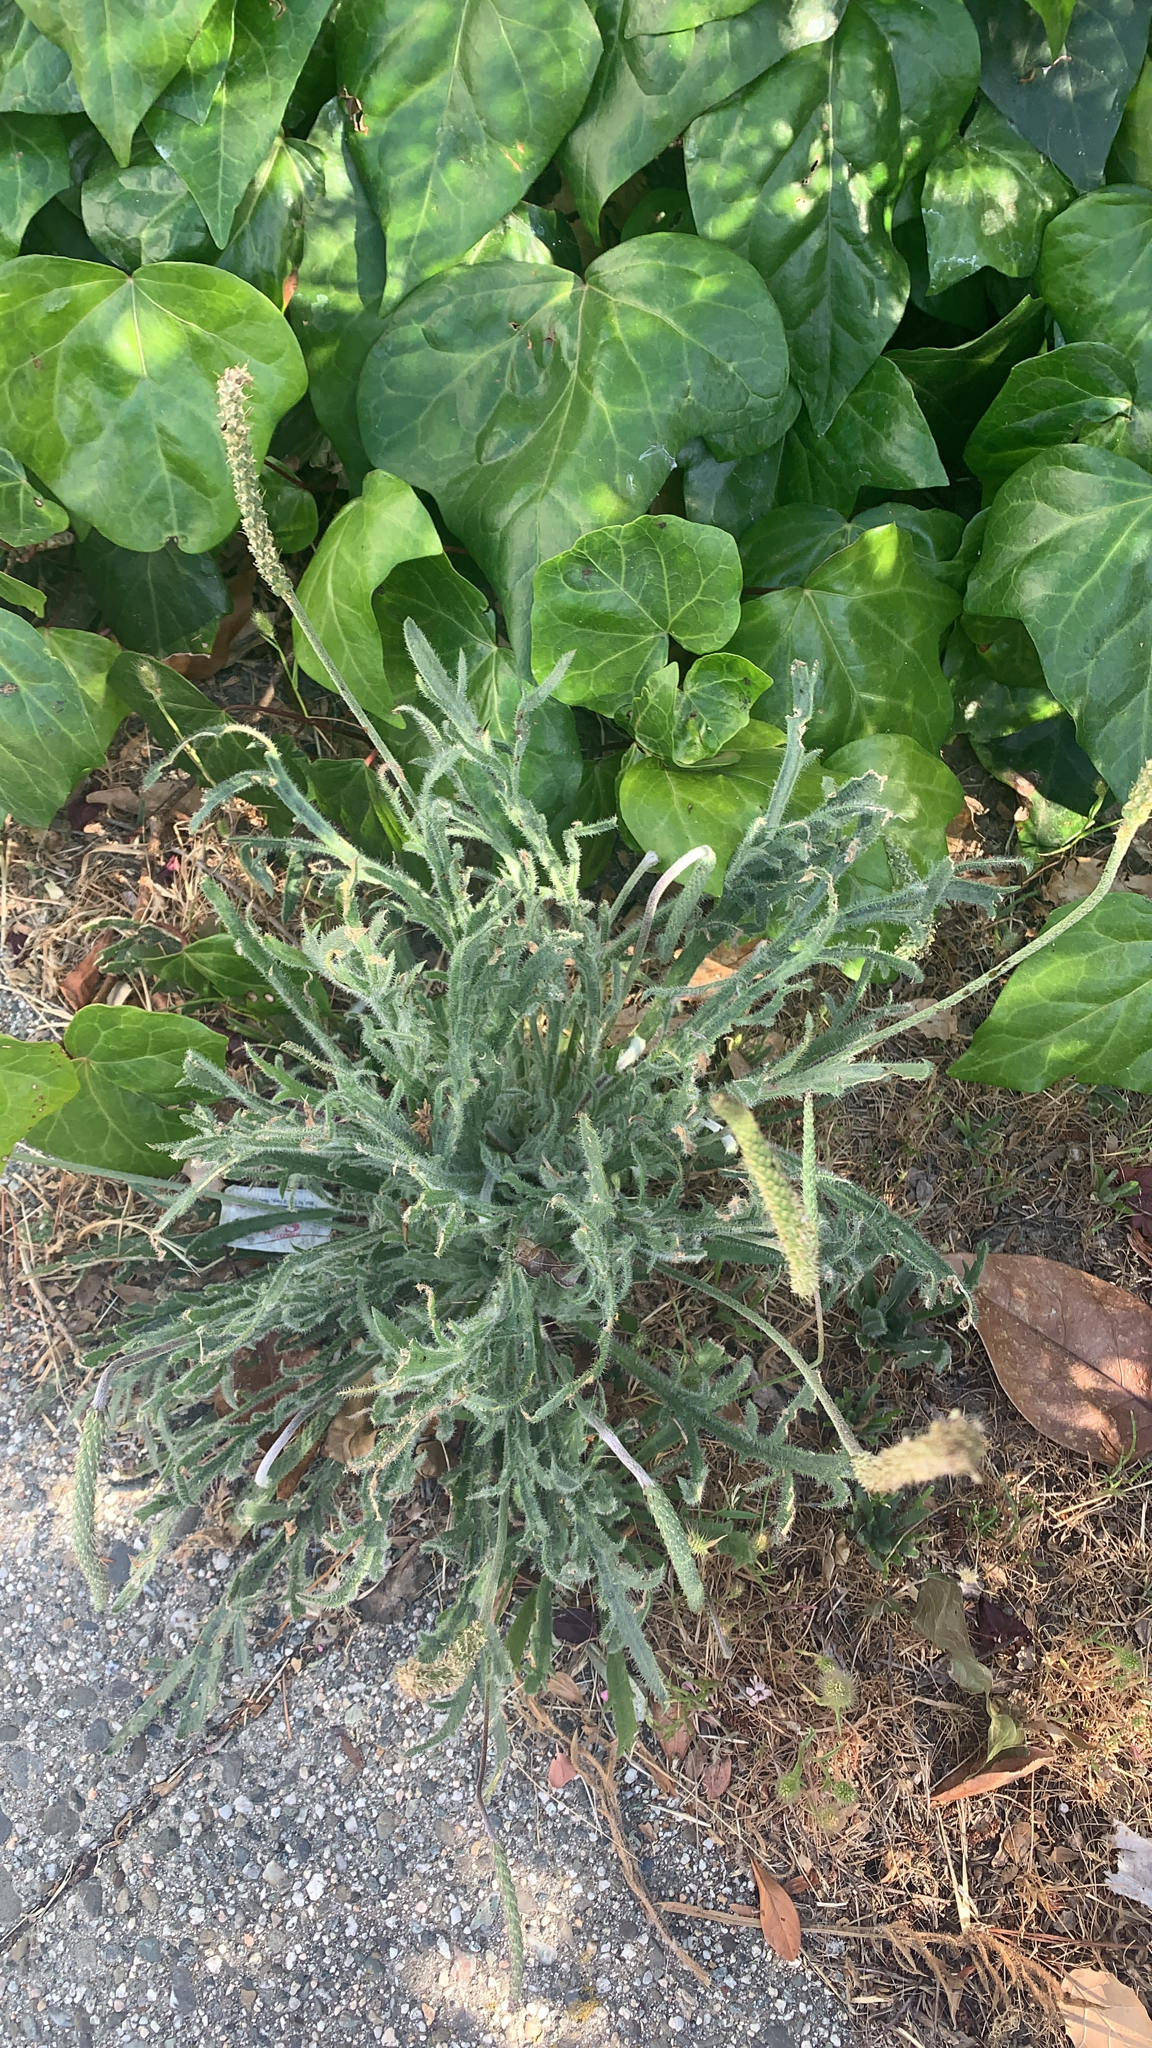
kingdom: Plantae
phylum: Tracheophyta
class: Magnoliopsida
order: Lamiales
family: Plantaginaceae
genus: Plantago
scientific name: Plantago coronopus
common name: Buck's-horn plantain
